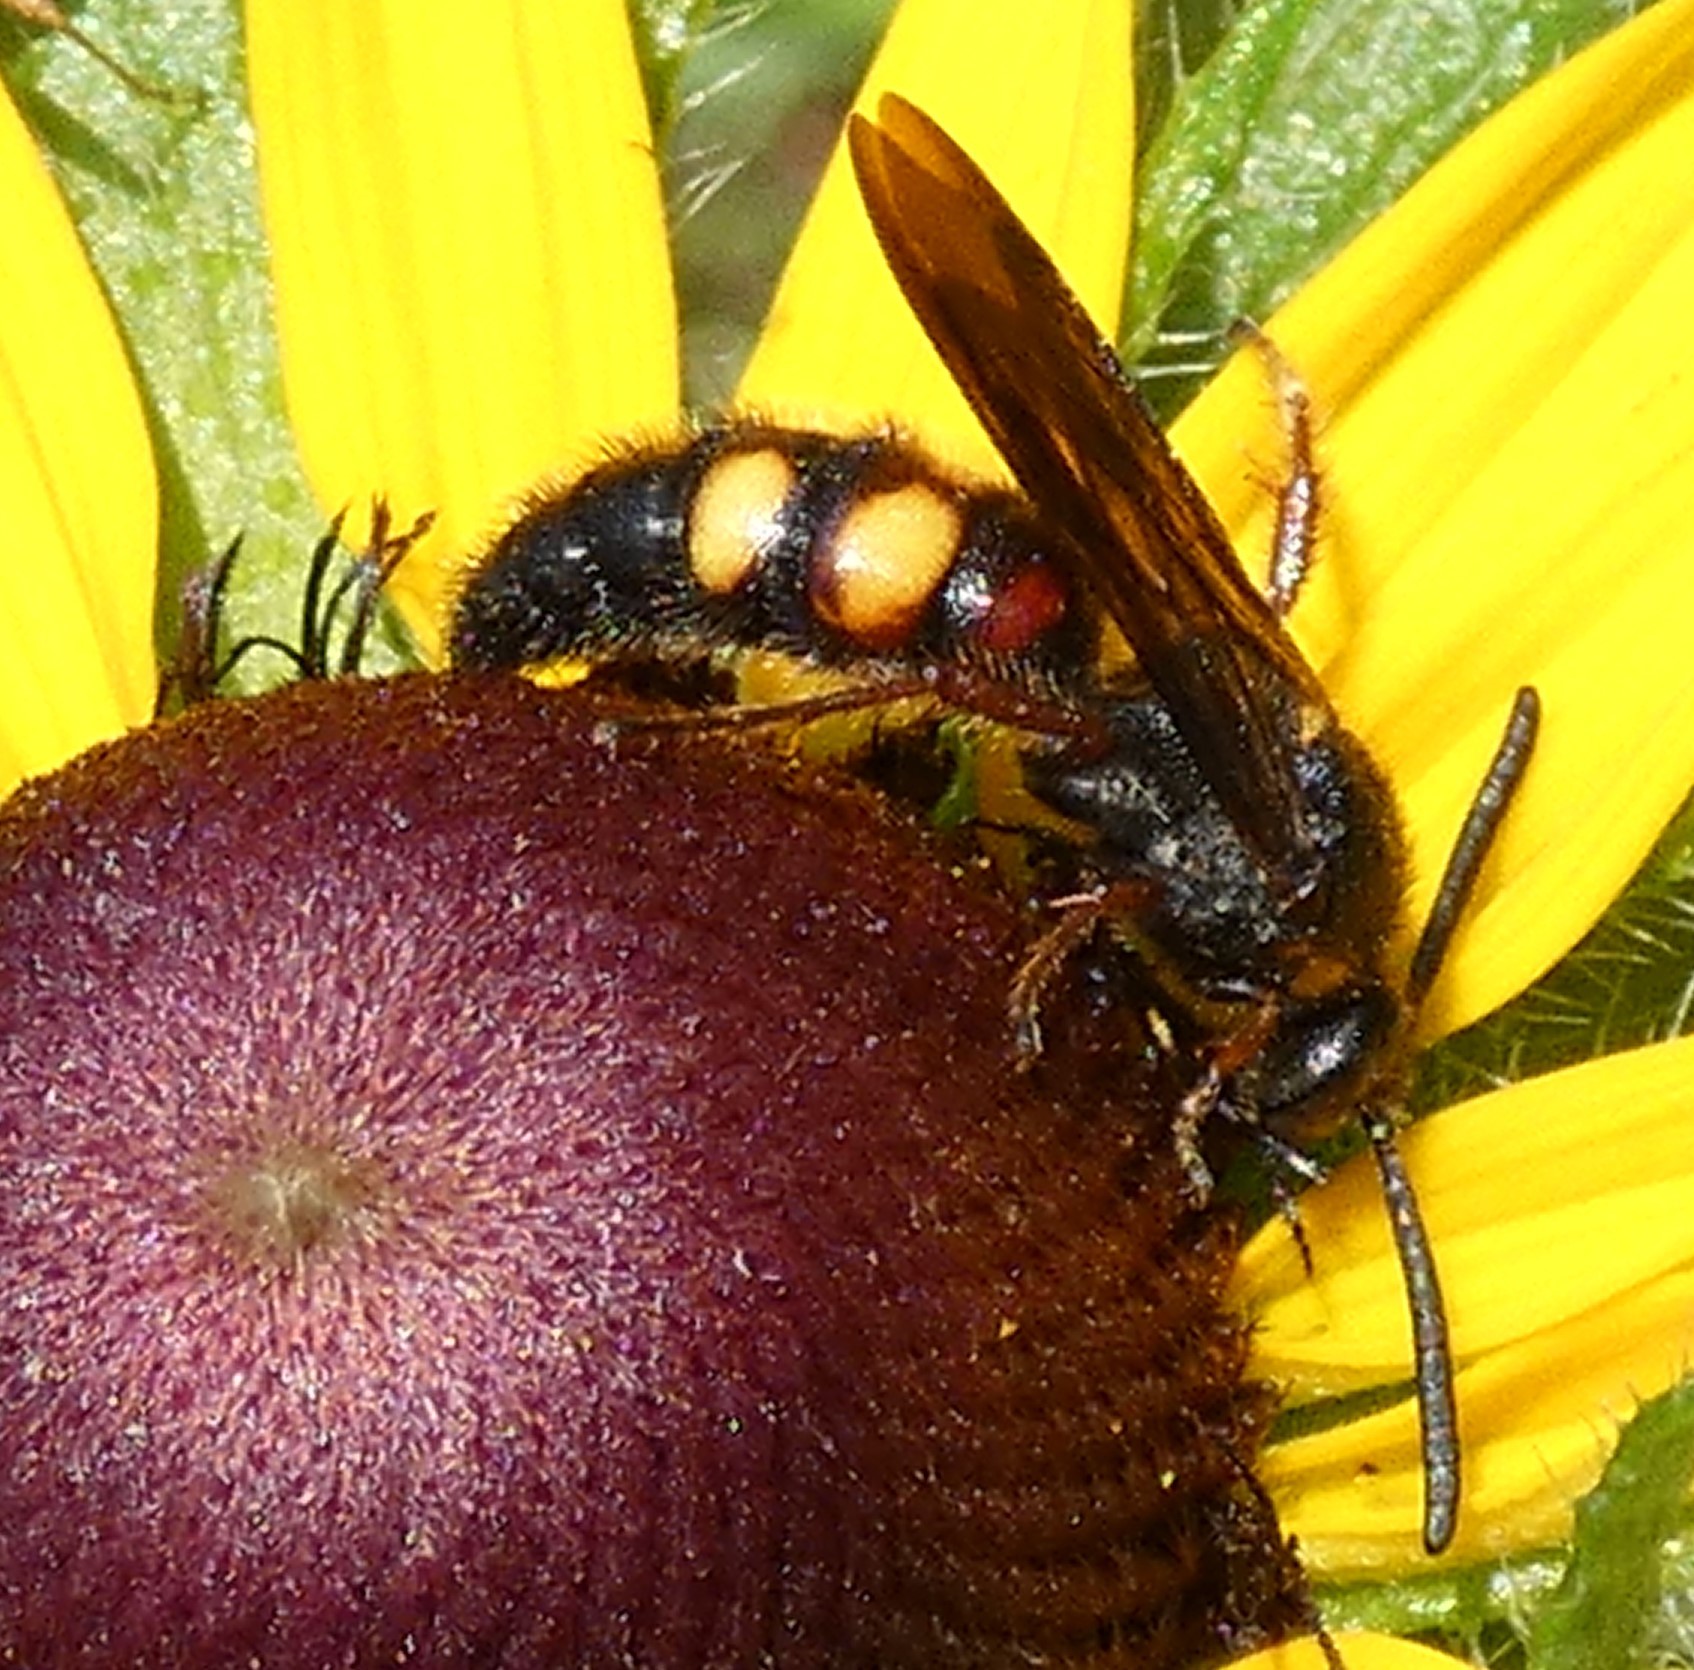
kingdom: Animalia
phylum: Arthropoda
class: Insecta
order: Hymenoptera
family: Scoliidae
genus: Scolia
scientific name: Scolia nobilitata
